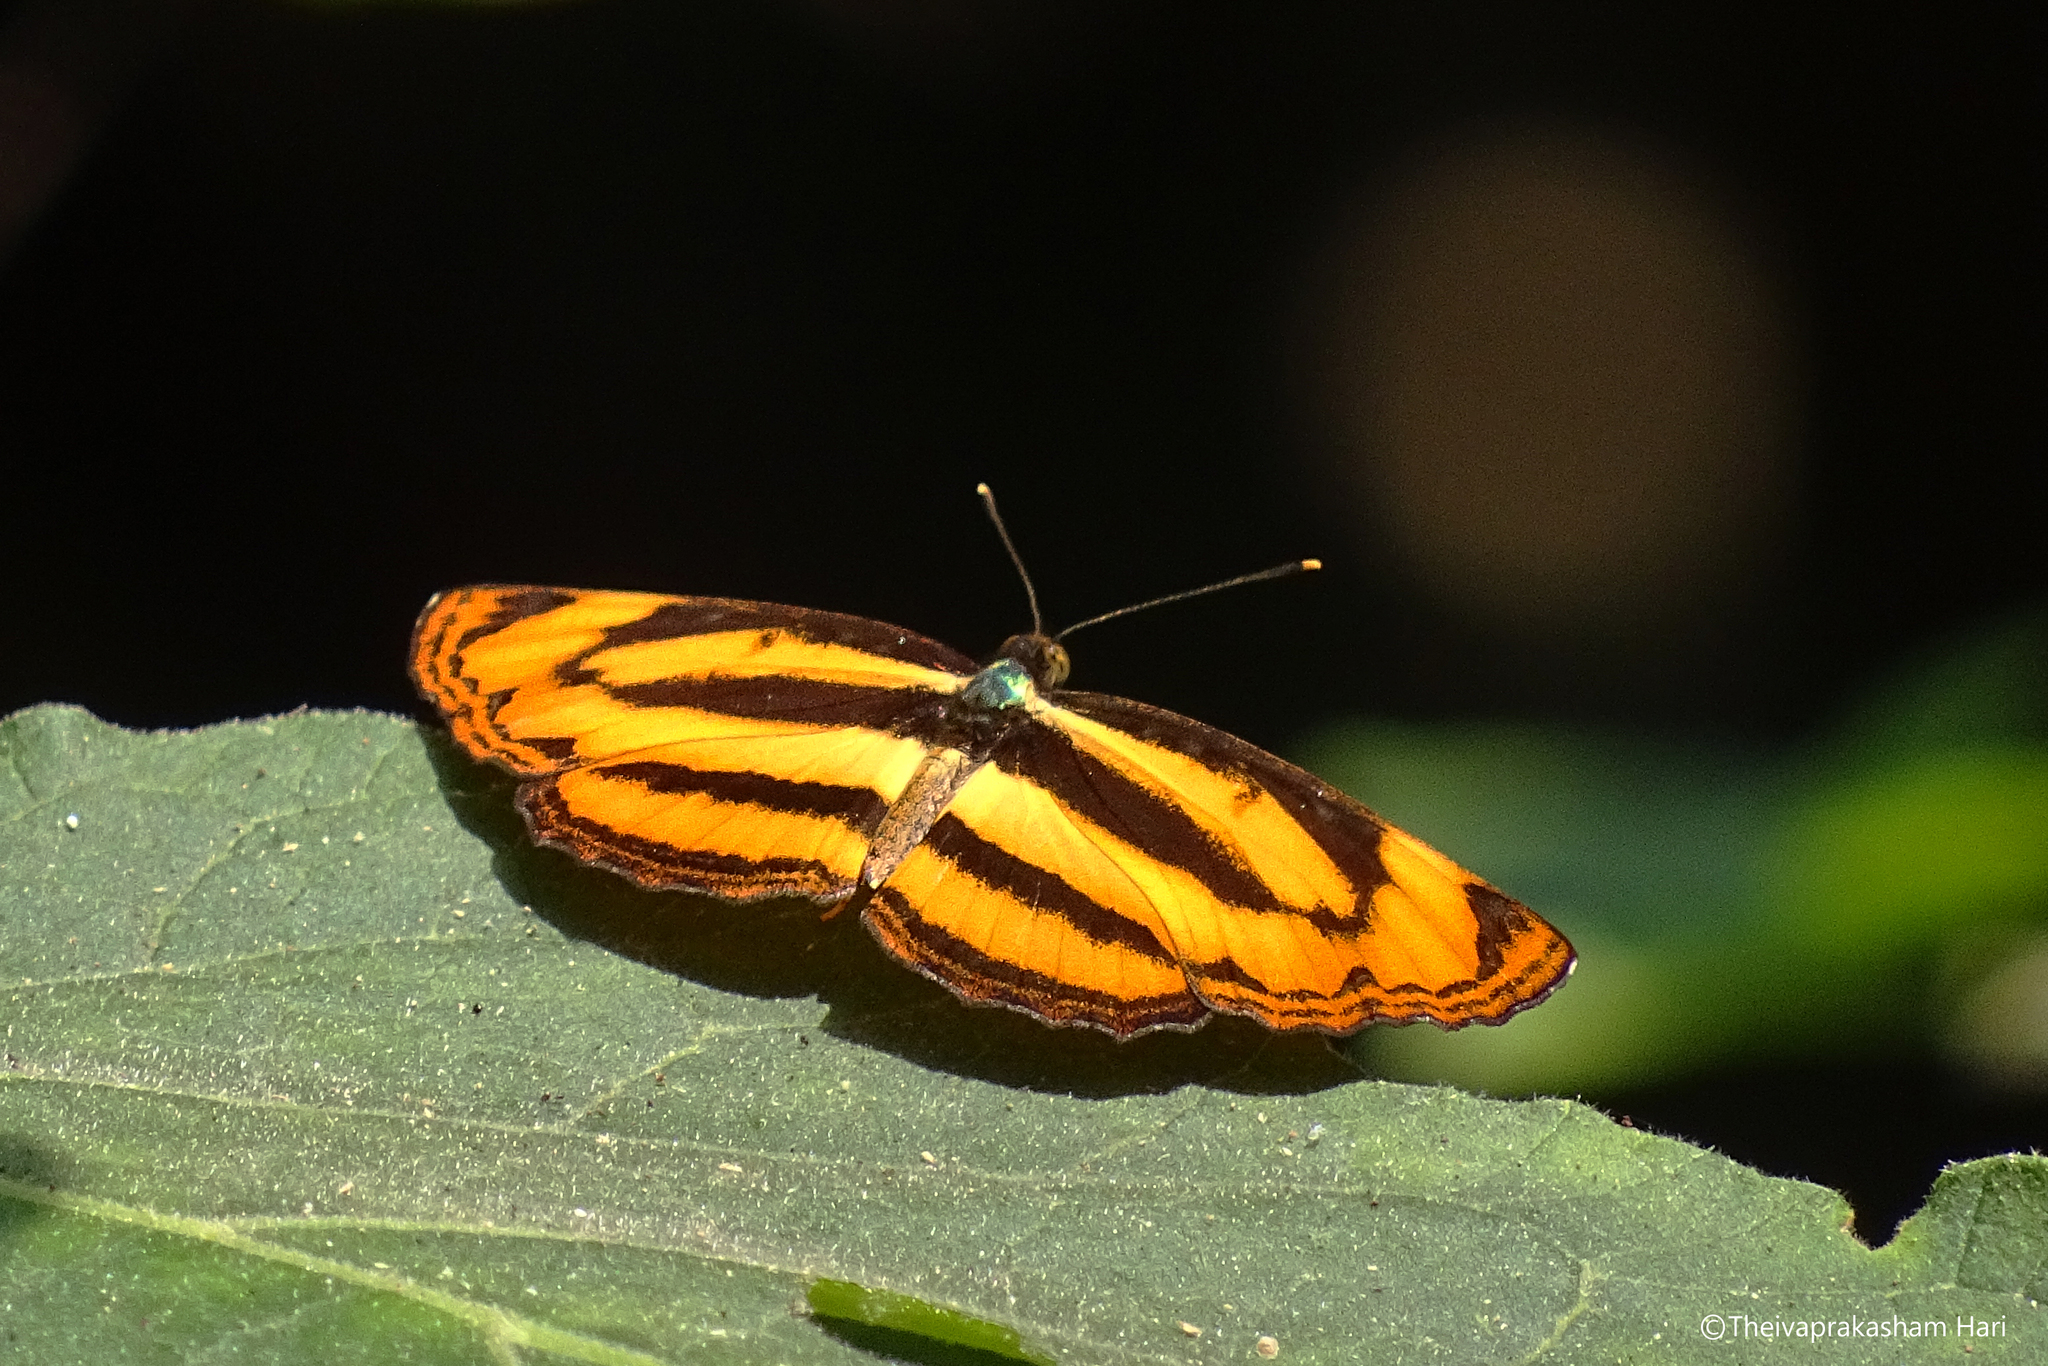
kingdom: Animalia
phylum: Arthropoda
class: Insecta
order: Lepidoptera
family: Nymphalidae
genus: Pantoporia
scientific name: Pantoporia hordonia
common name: Common lascar
